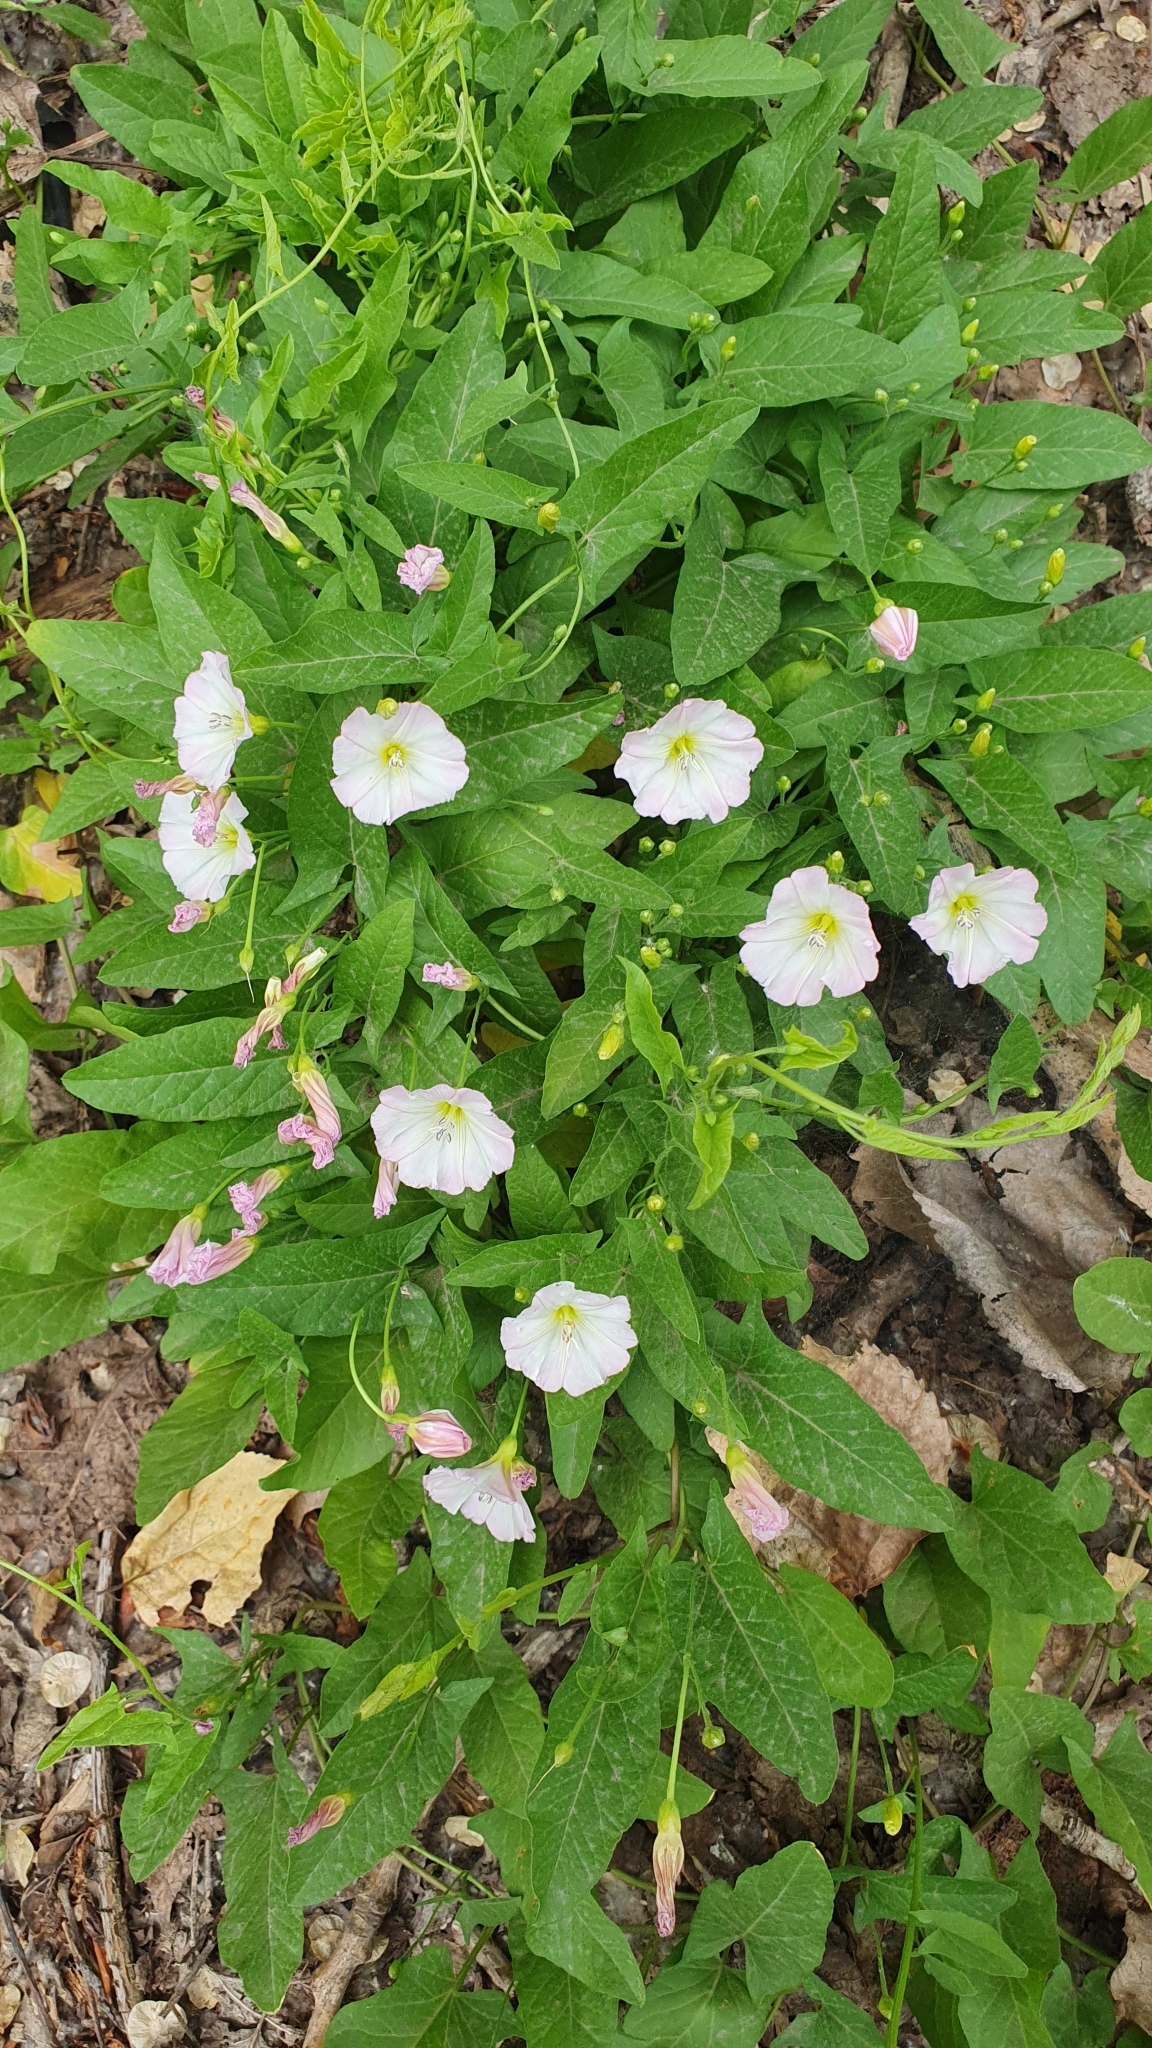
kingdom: Plantae
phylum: Tracheophyta
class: Magnoliopsida
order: Solanales
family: Convolvulaceae
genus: Convolvulus
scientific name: Convolvulus arvensis
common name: Field bindweed
